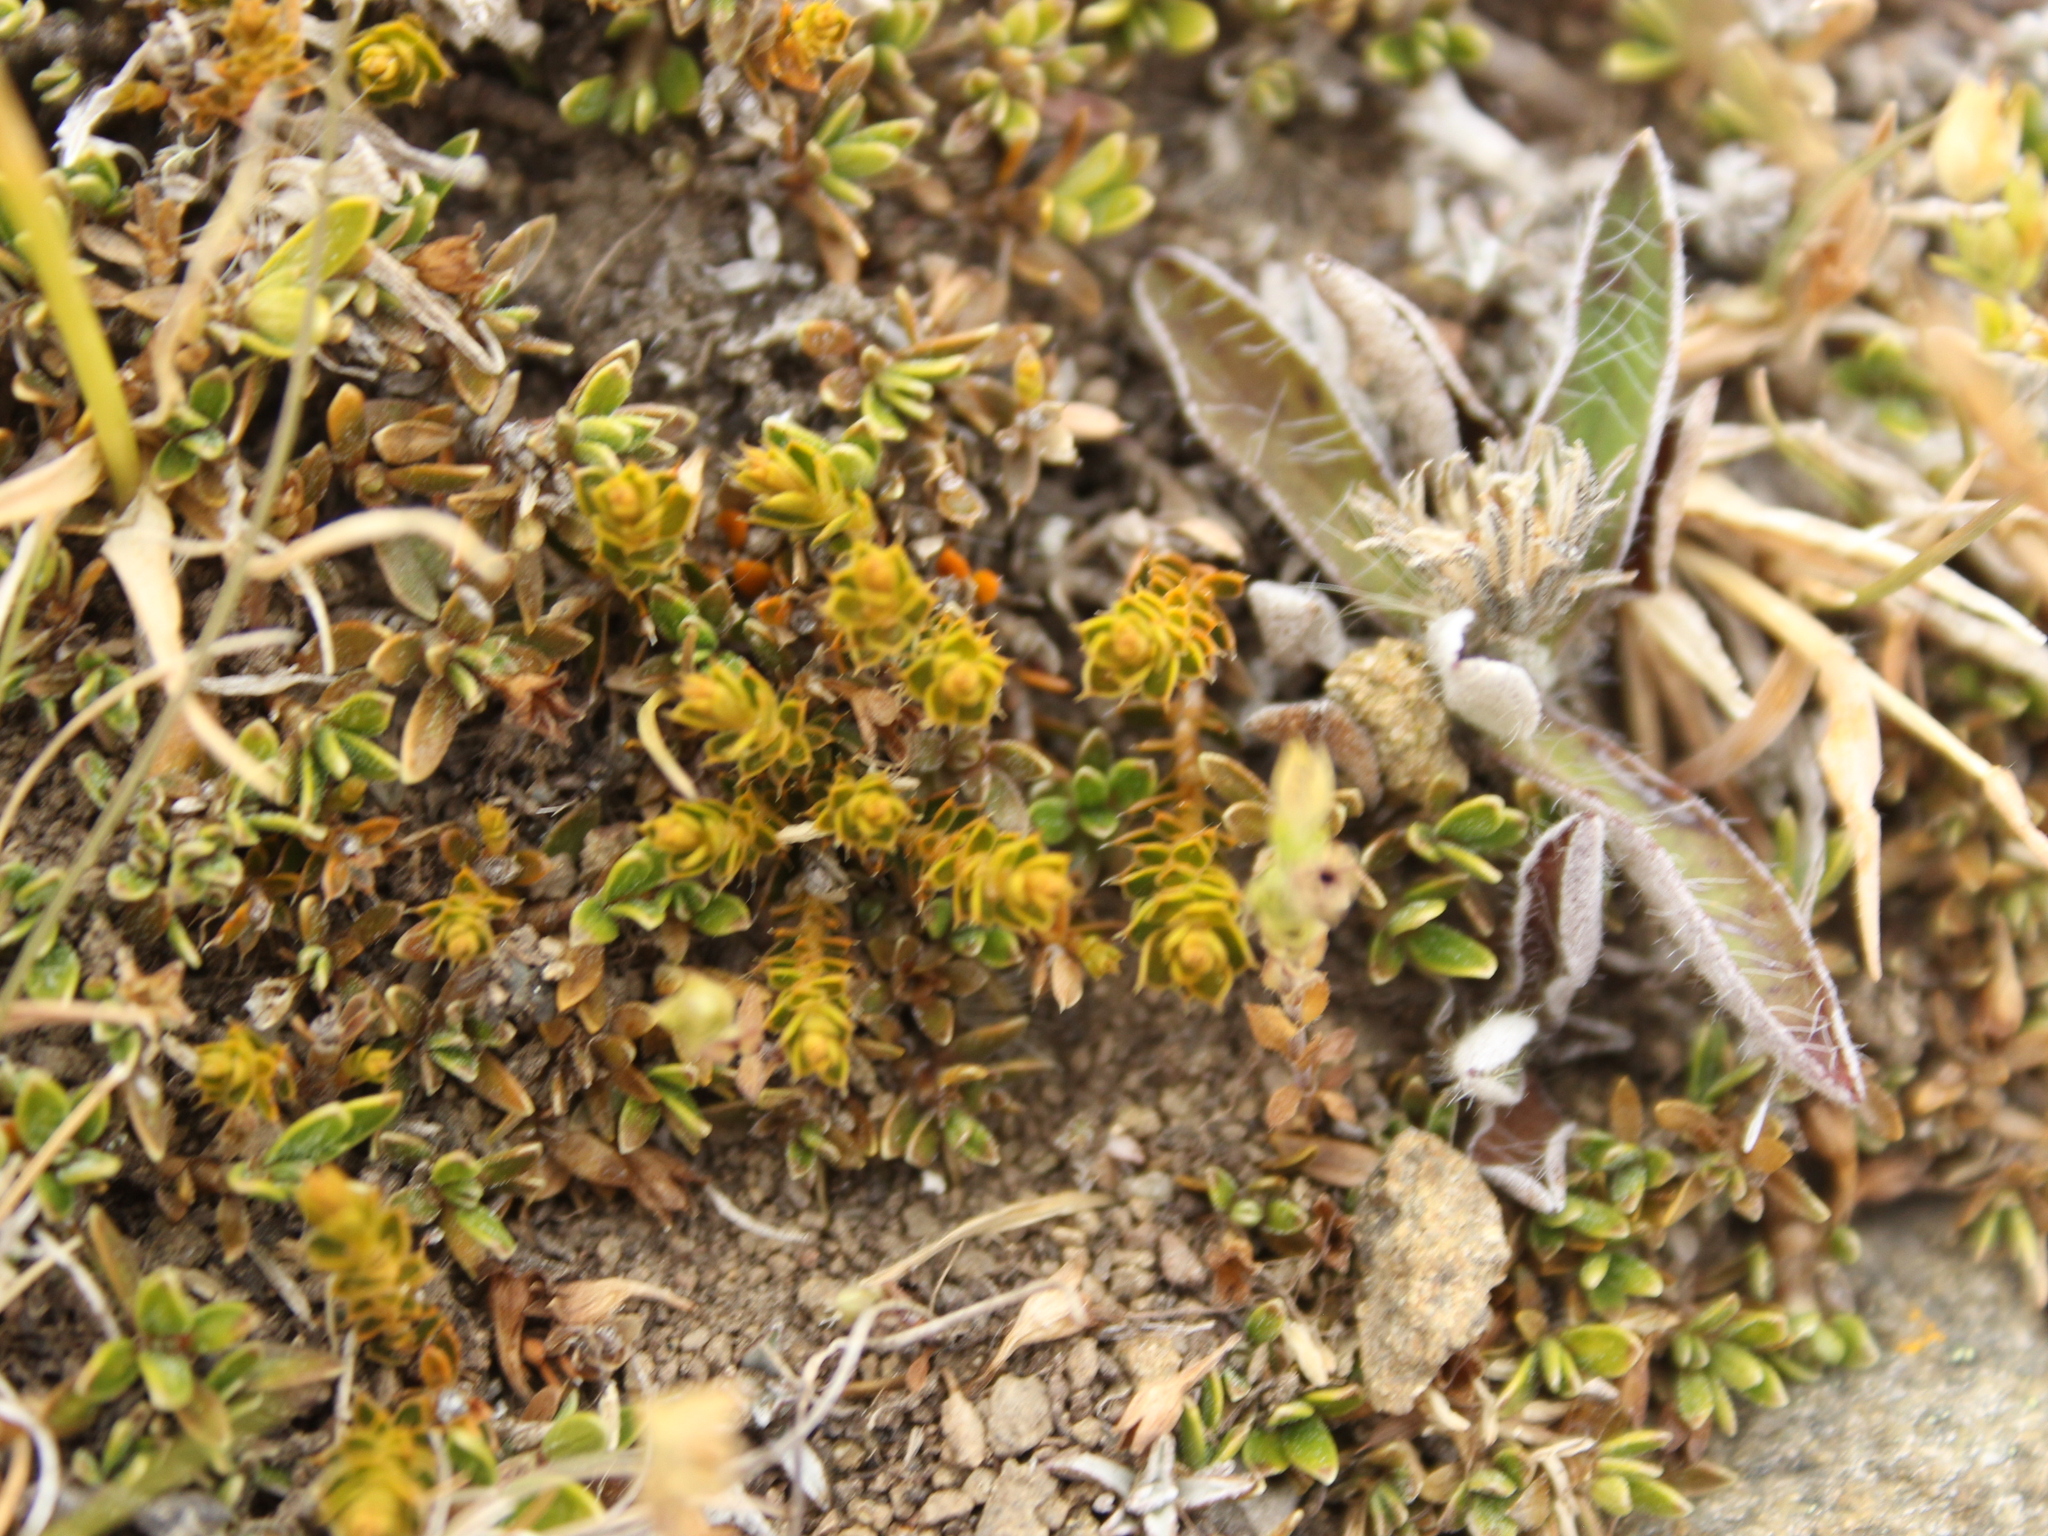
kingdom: Plantae
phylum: Tracheophyta
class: Magnoliopsida
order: Ericales
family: Ericaceae
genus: Styphelia
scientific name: Styphelia nana
